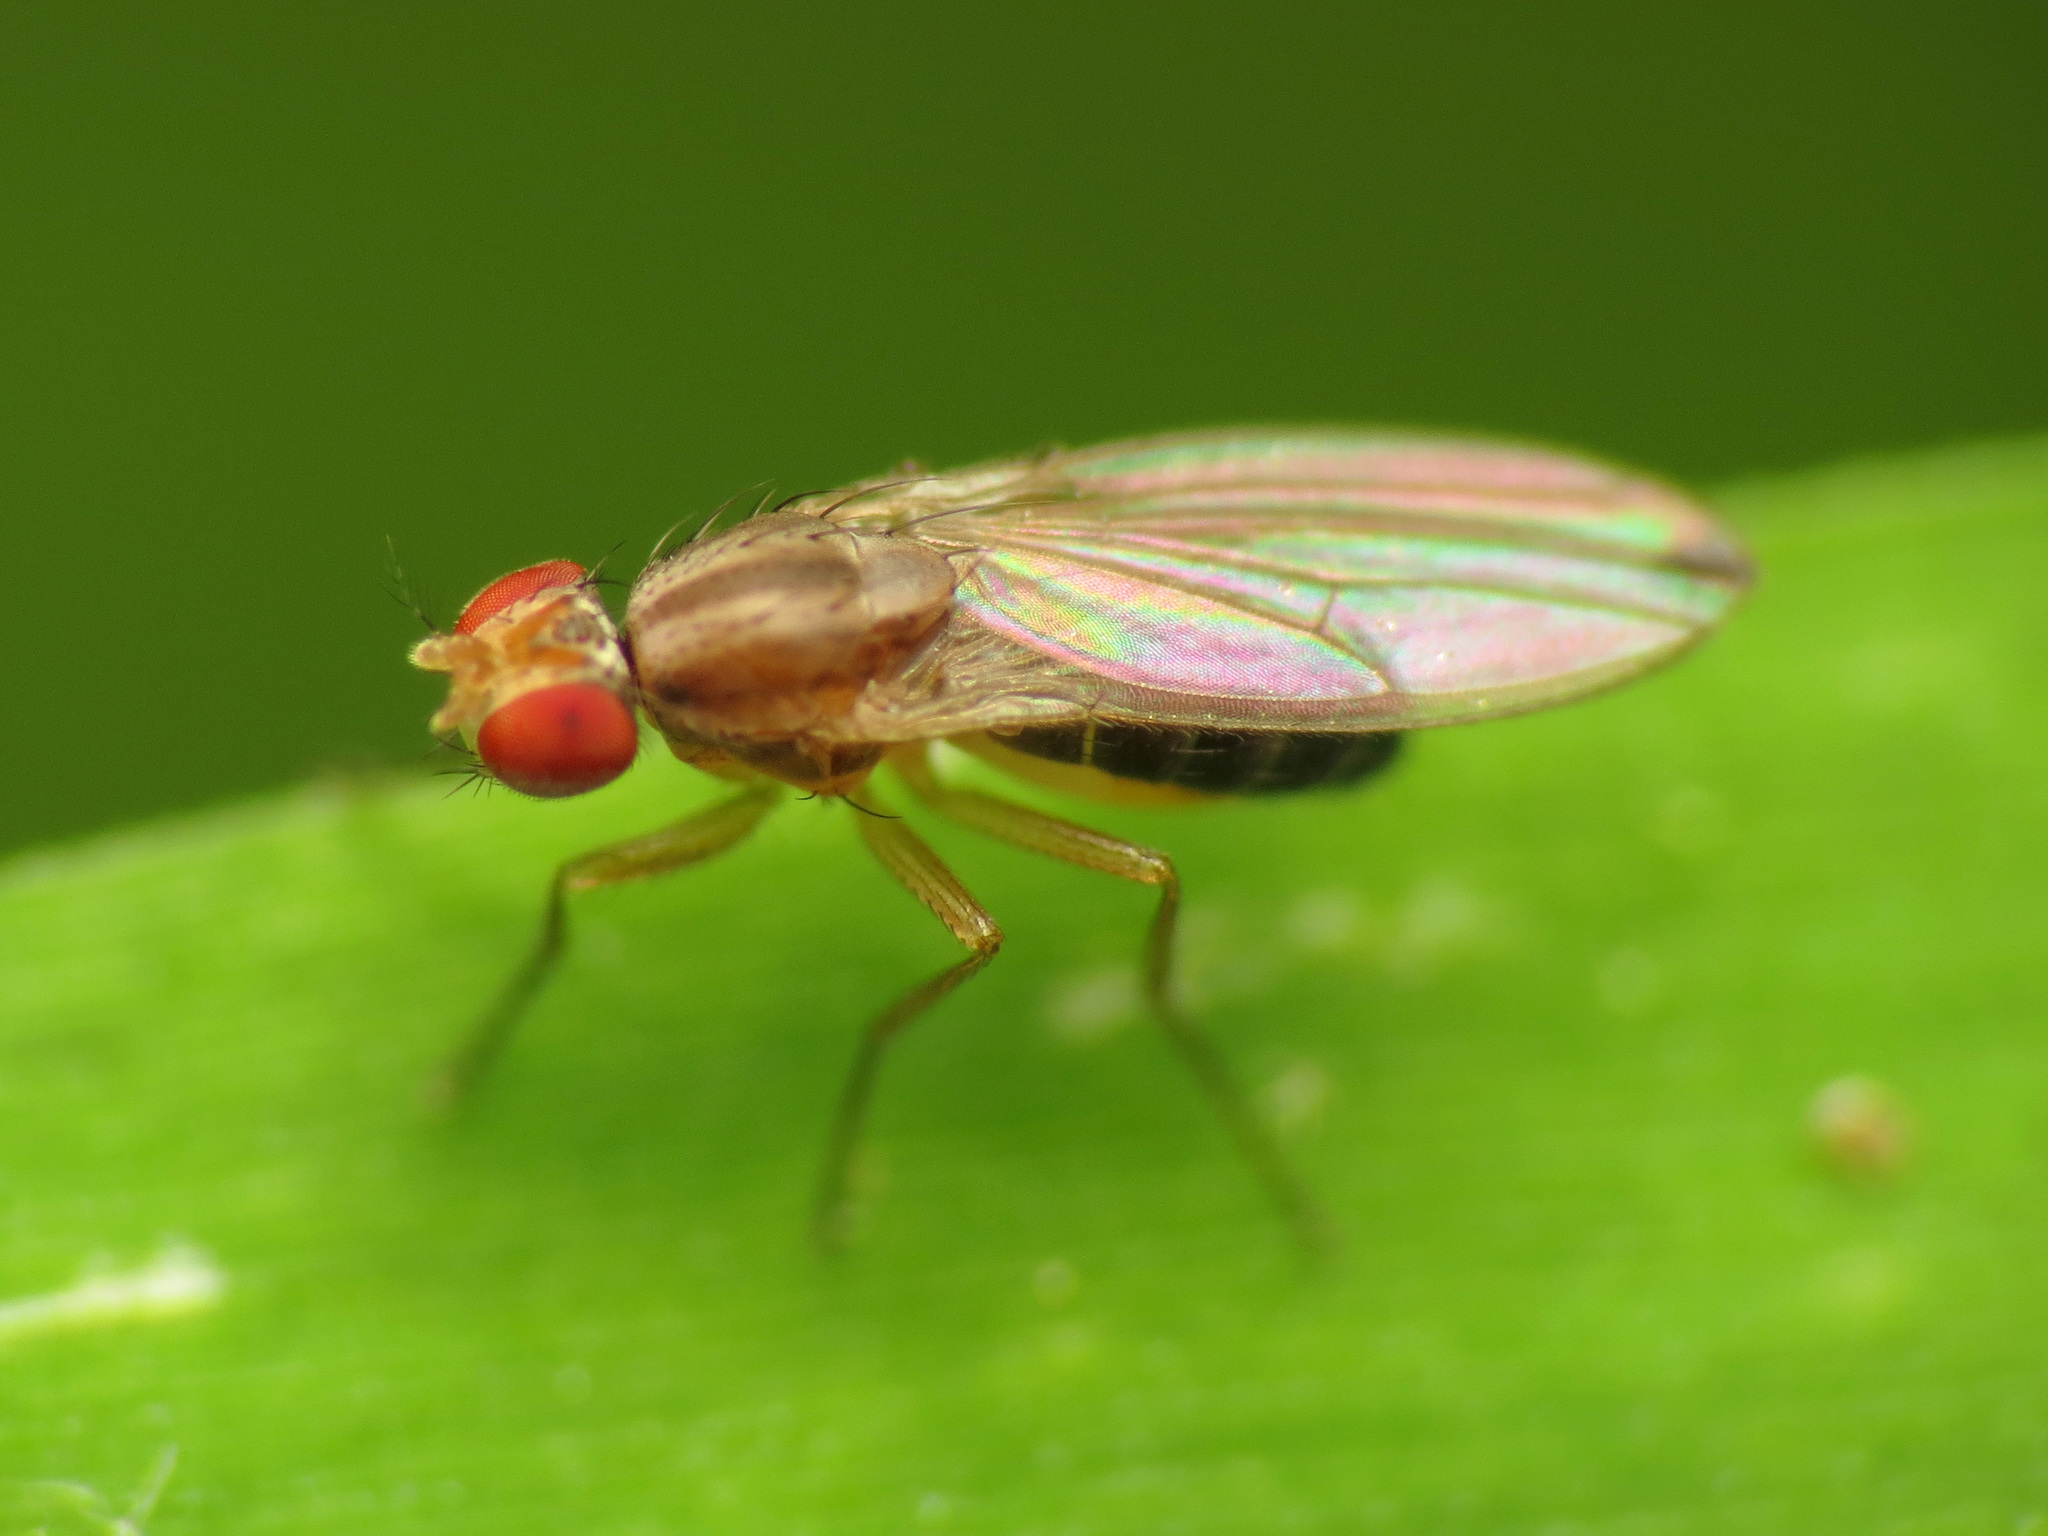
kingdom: Animalia
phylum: Arthropoda
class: Insecta
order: Diptera
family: Drosophilidae
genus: Scaptomyza
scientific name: Scaptomyza adusta
